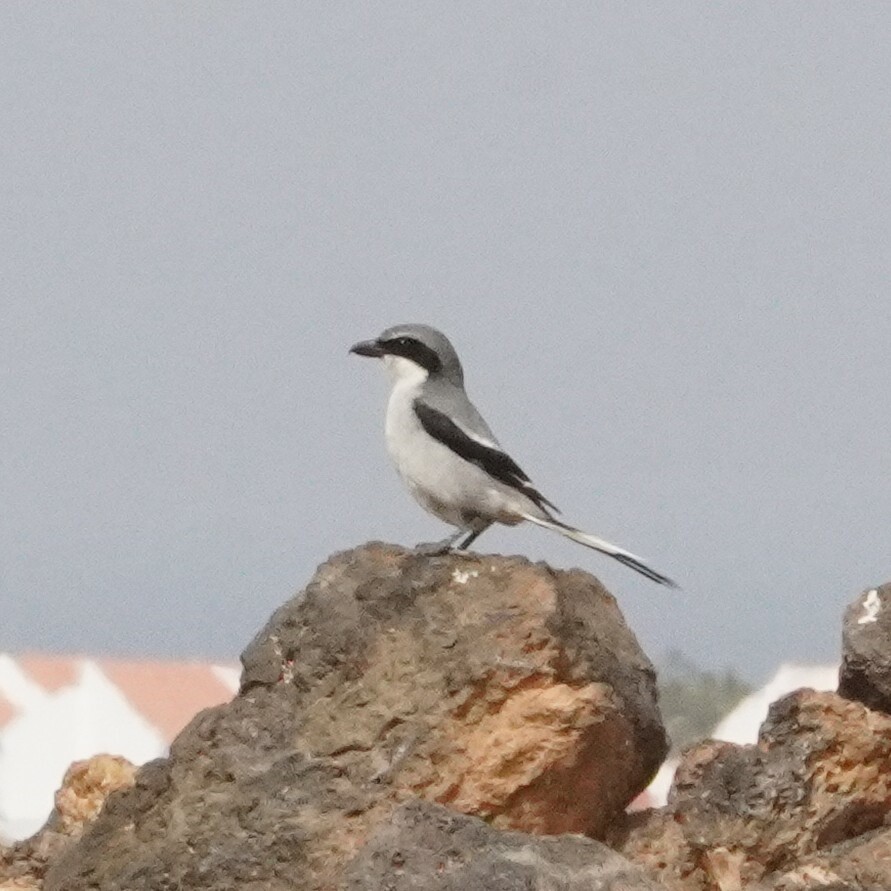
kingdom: Animalia
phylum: Chordata
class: Aves
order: Passeriformes
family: Laniidae
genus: Lanius
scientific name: Lanius excubitor
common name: Great grey shrike
